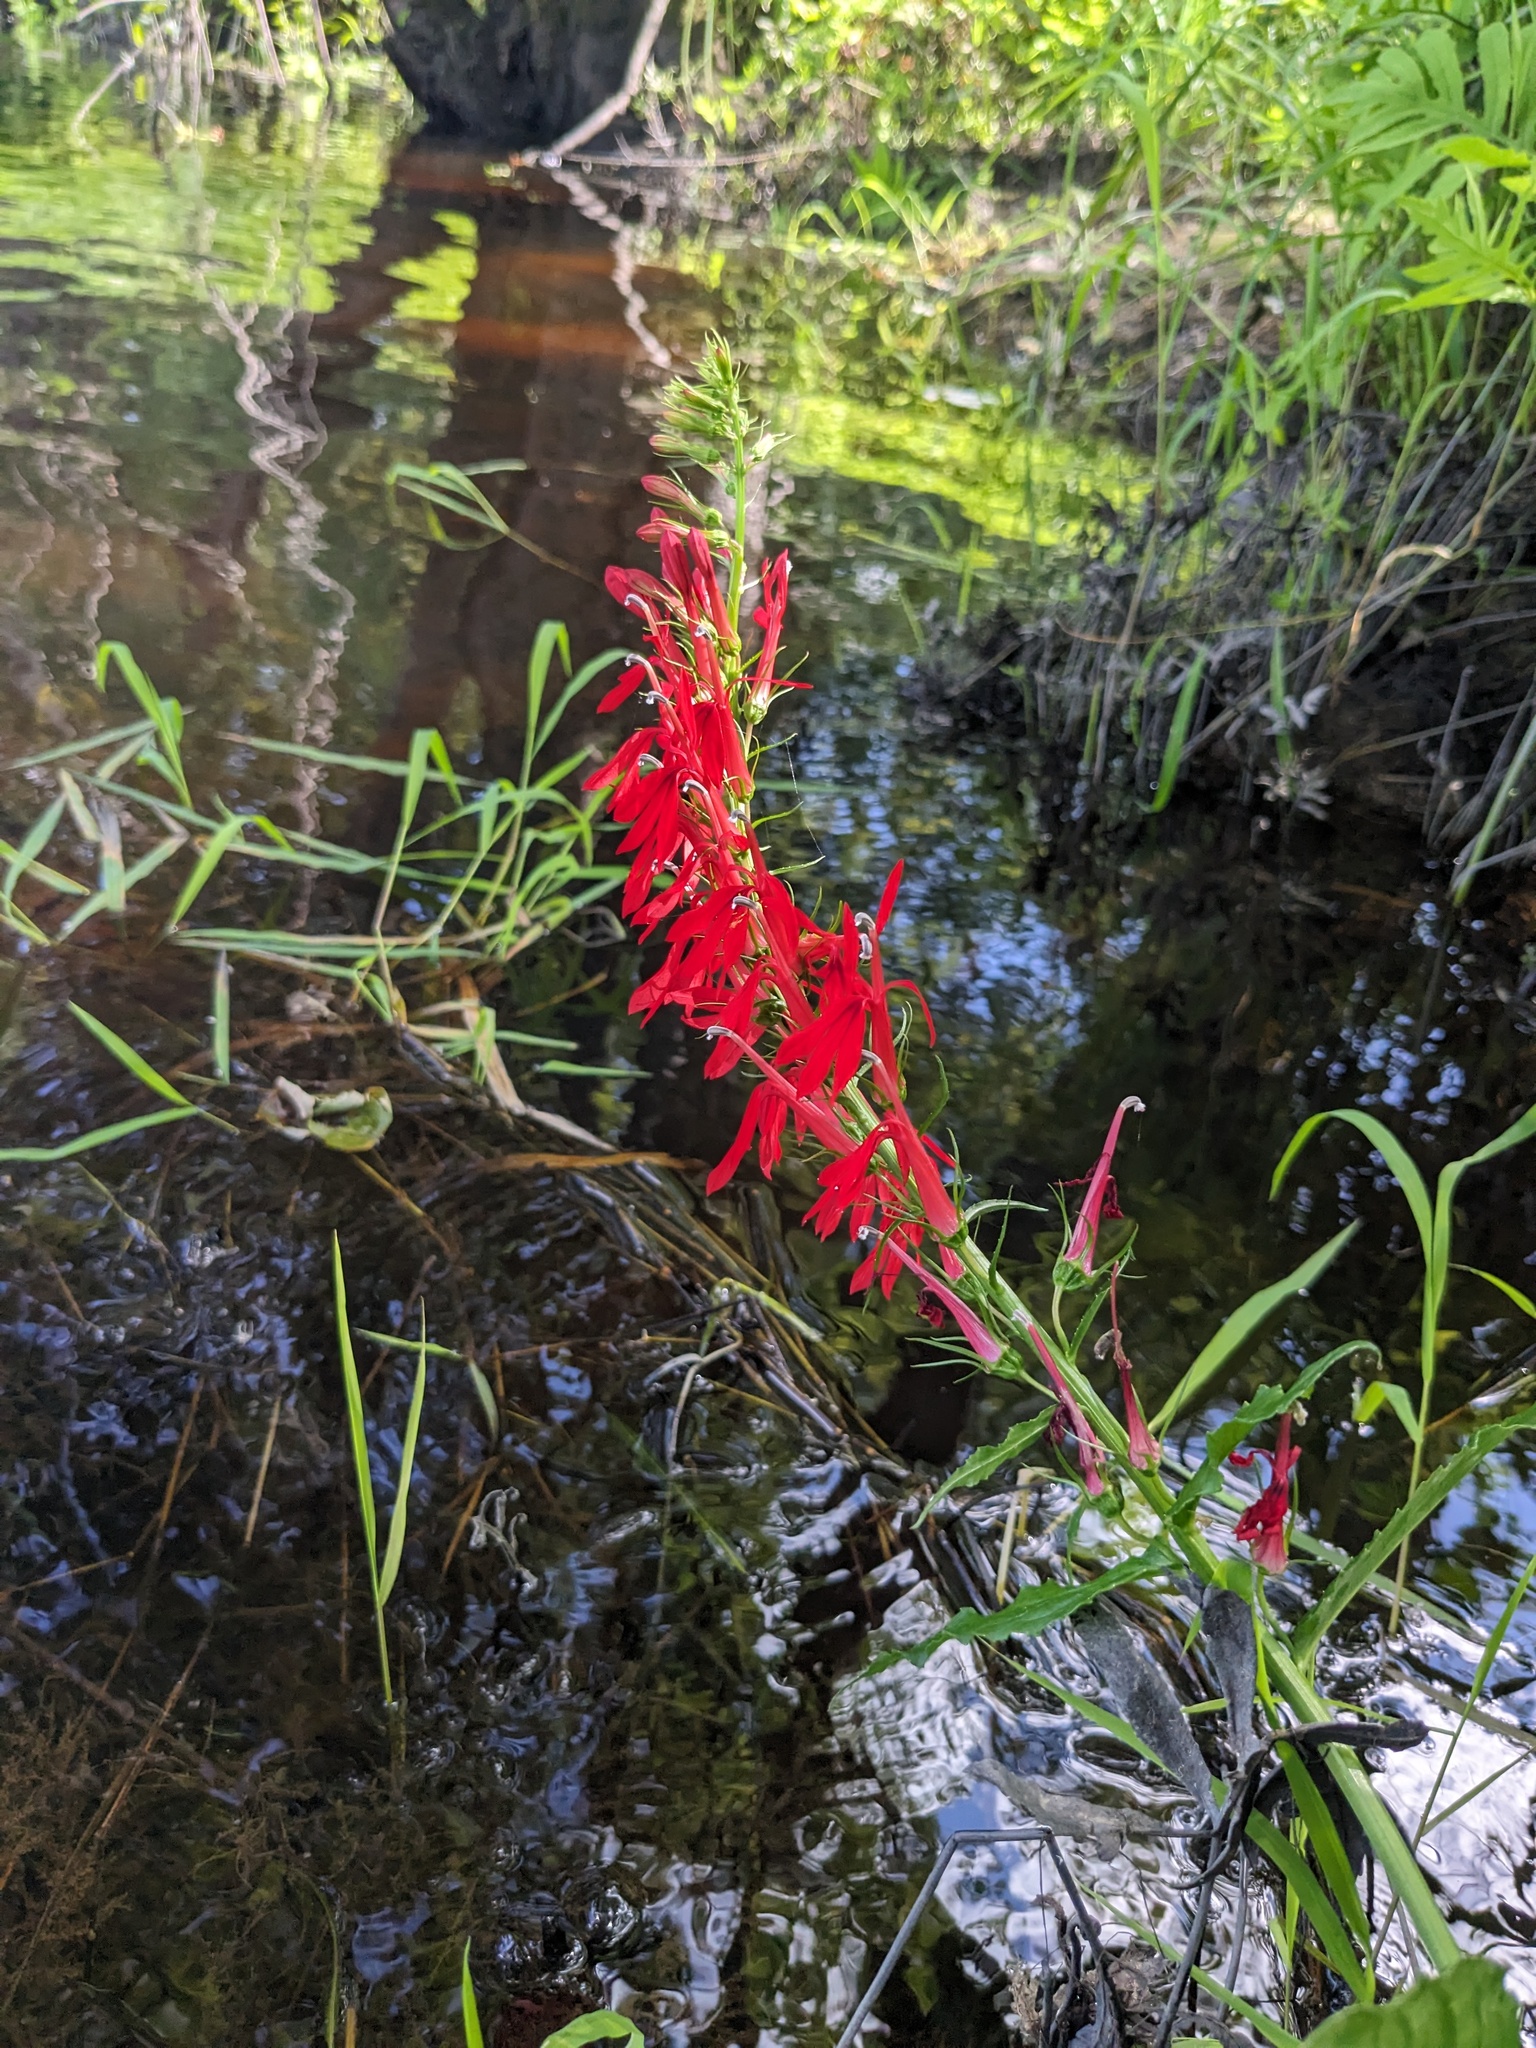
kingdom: Plantae
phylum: Tracheophyta
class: Magnoliopsida
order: Asterales
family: Campanulaceae
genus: Lobelia
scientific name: Lobelia cardinalis
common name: Cardinal flower
